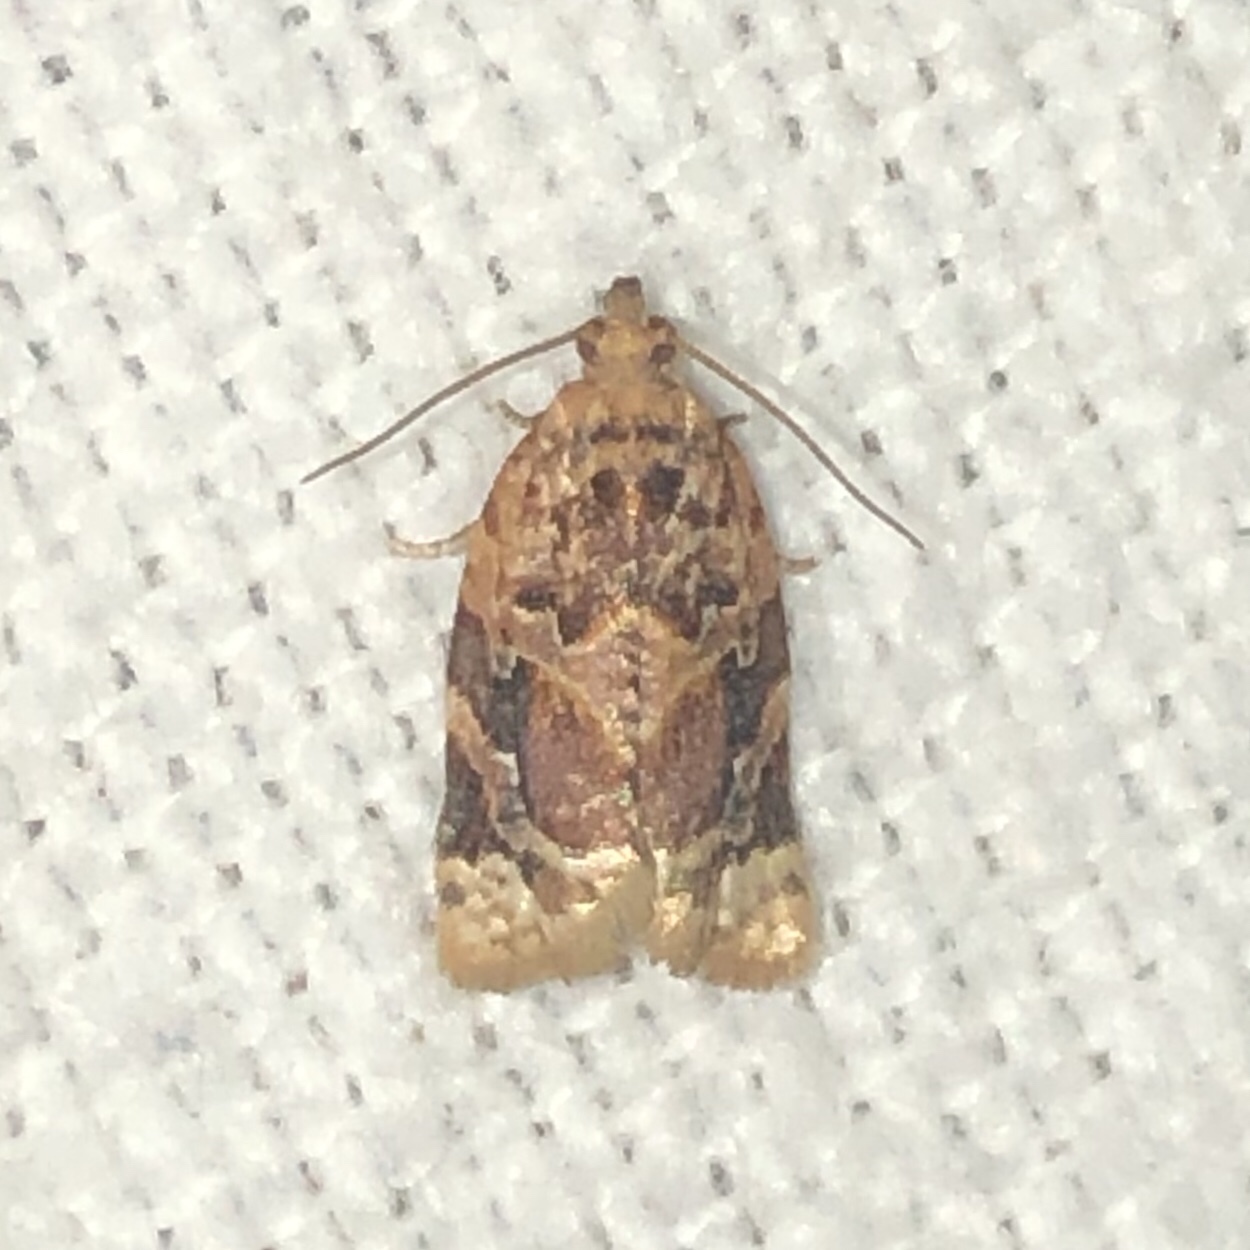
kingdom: Animalia
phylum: Arthropoda
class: Insecta
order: Lepidoptera
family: Tortricidae
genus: Argyrotaenia
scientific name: Argyrotaenia velutinana
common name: Red-banded leafroller moth
